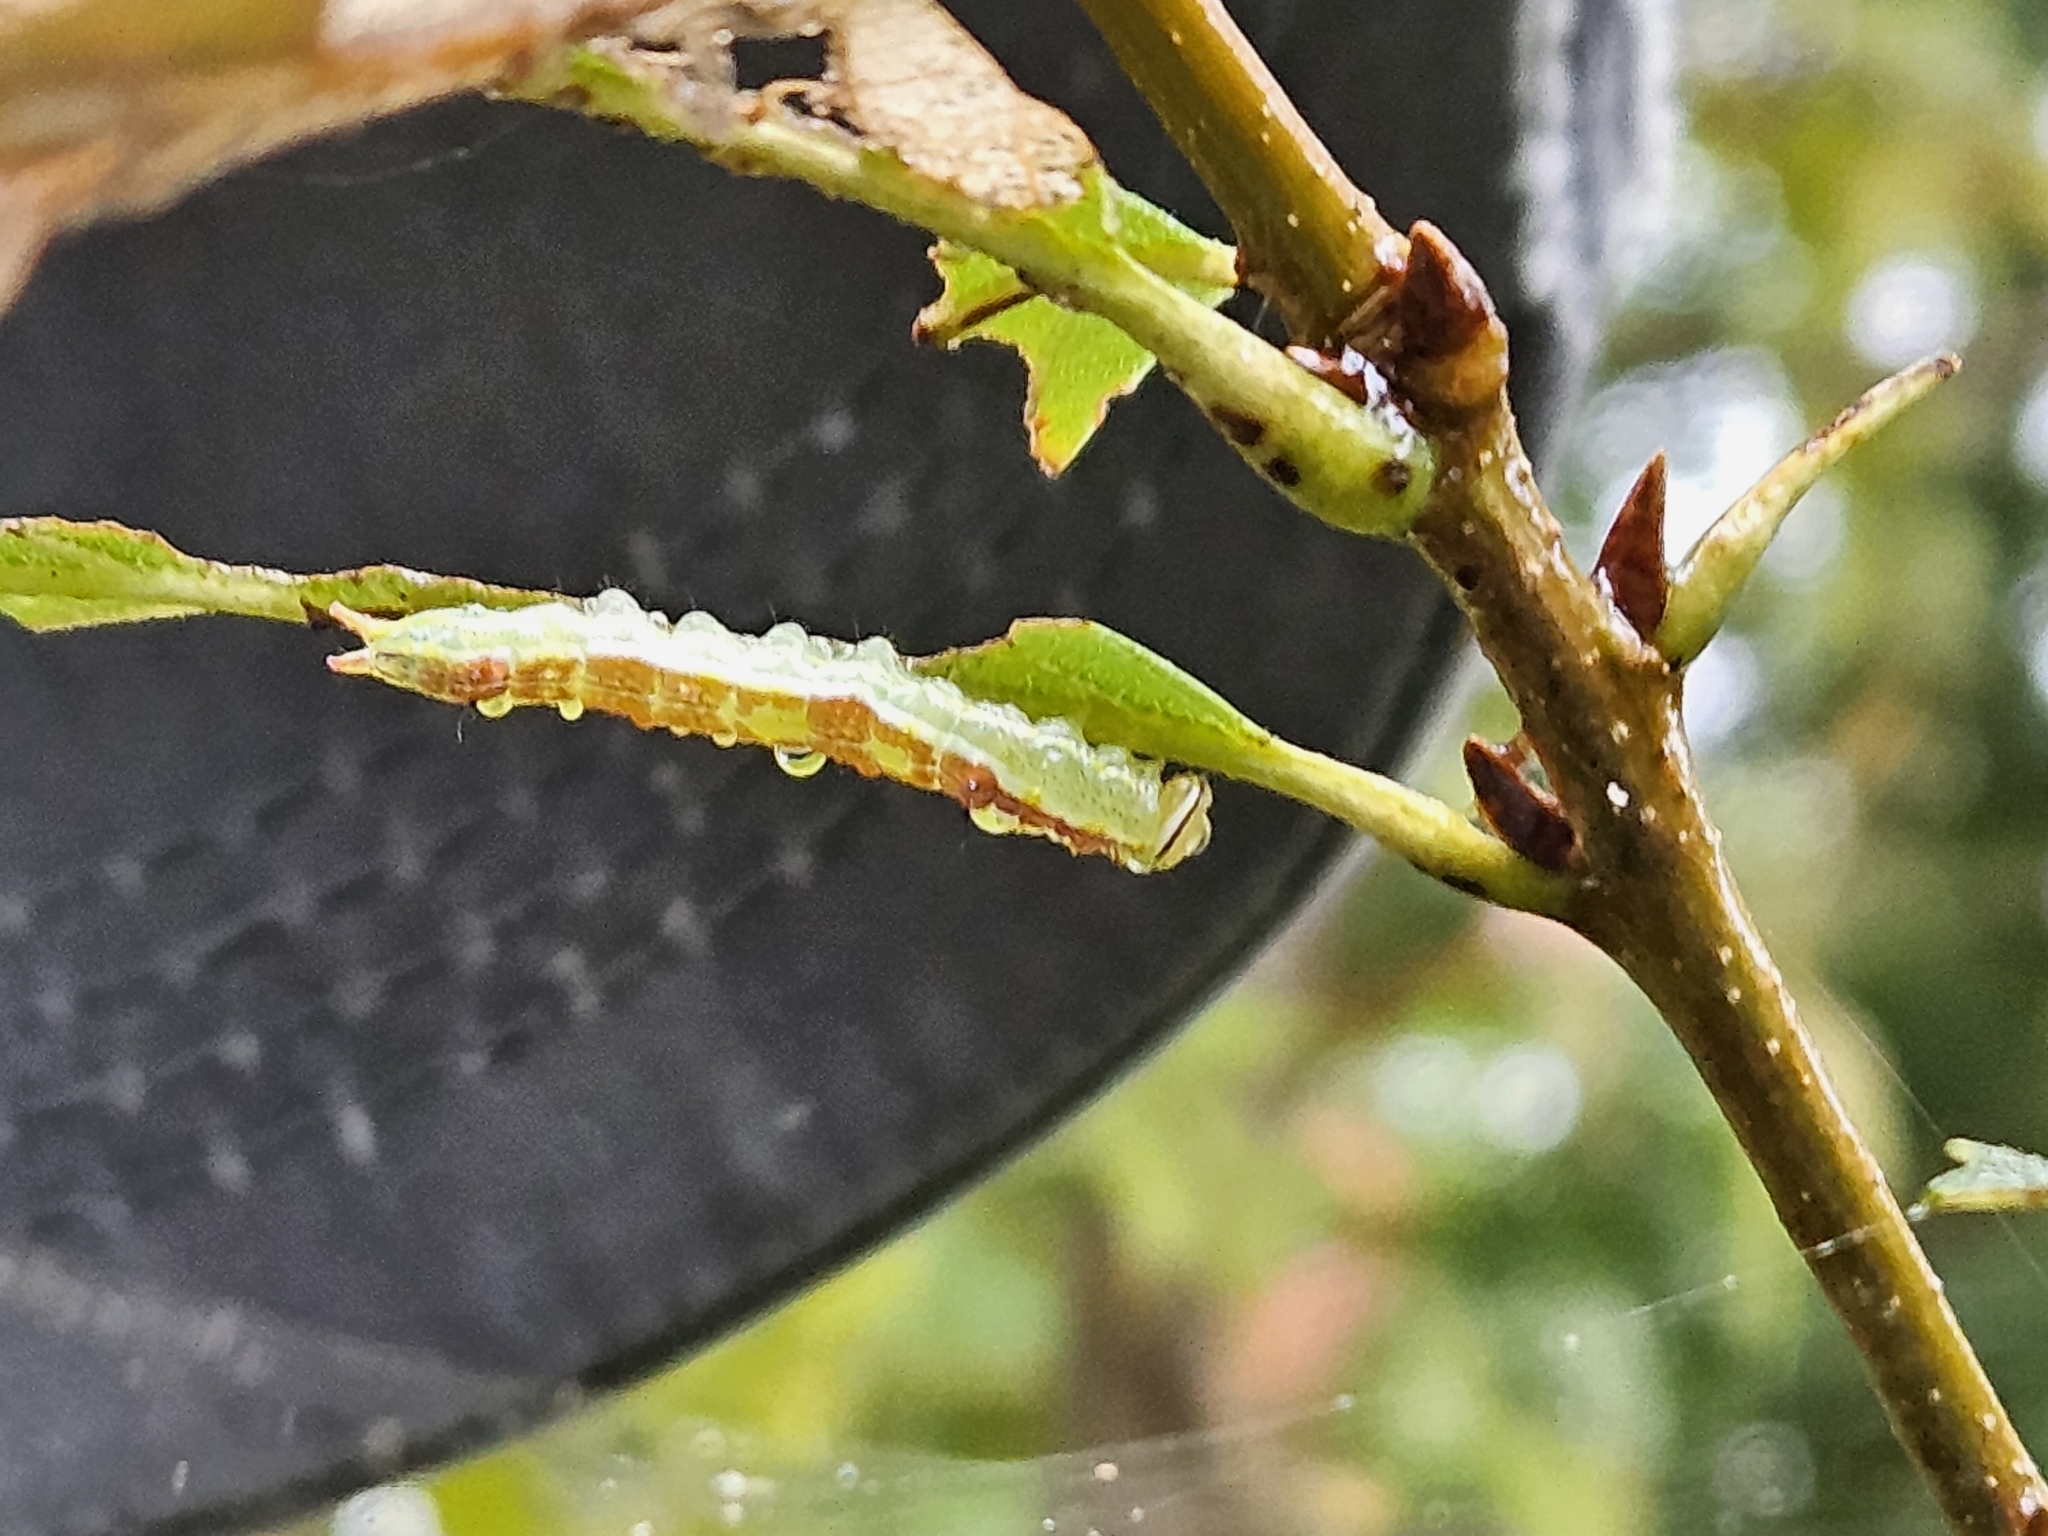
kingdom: Animalia
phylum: Arthropoda
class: Insecta
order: Lepidoptera
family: Notodontidae
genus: Lochmaeus
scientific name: Lochmaeus manteo
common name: Variable oakleaf caterpillar moth
